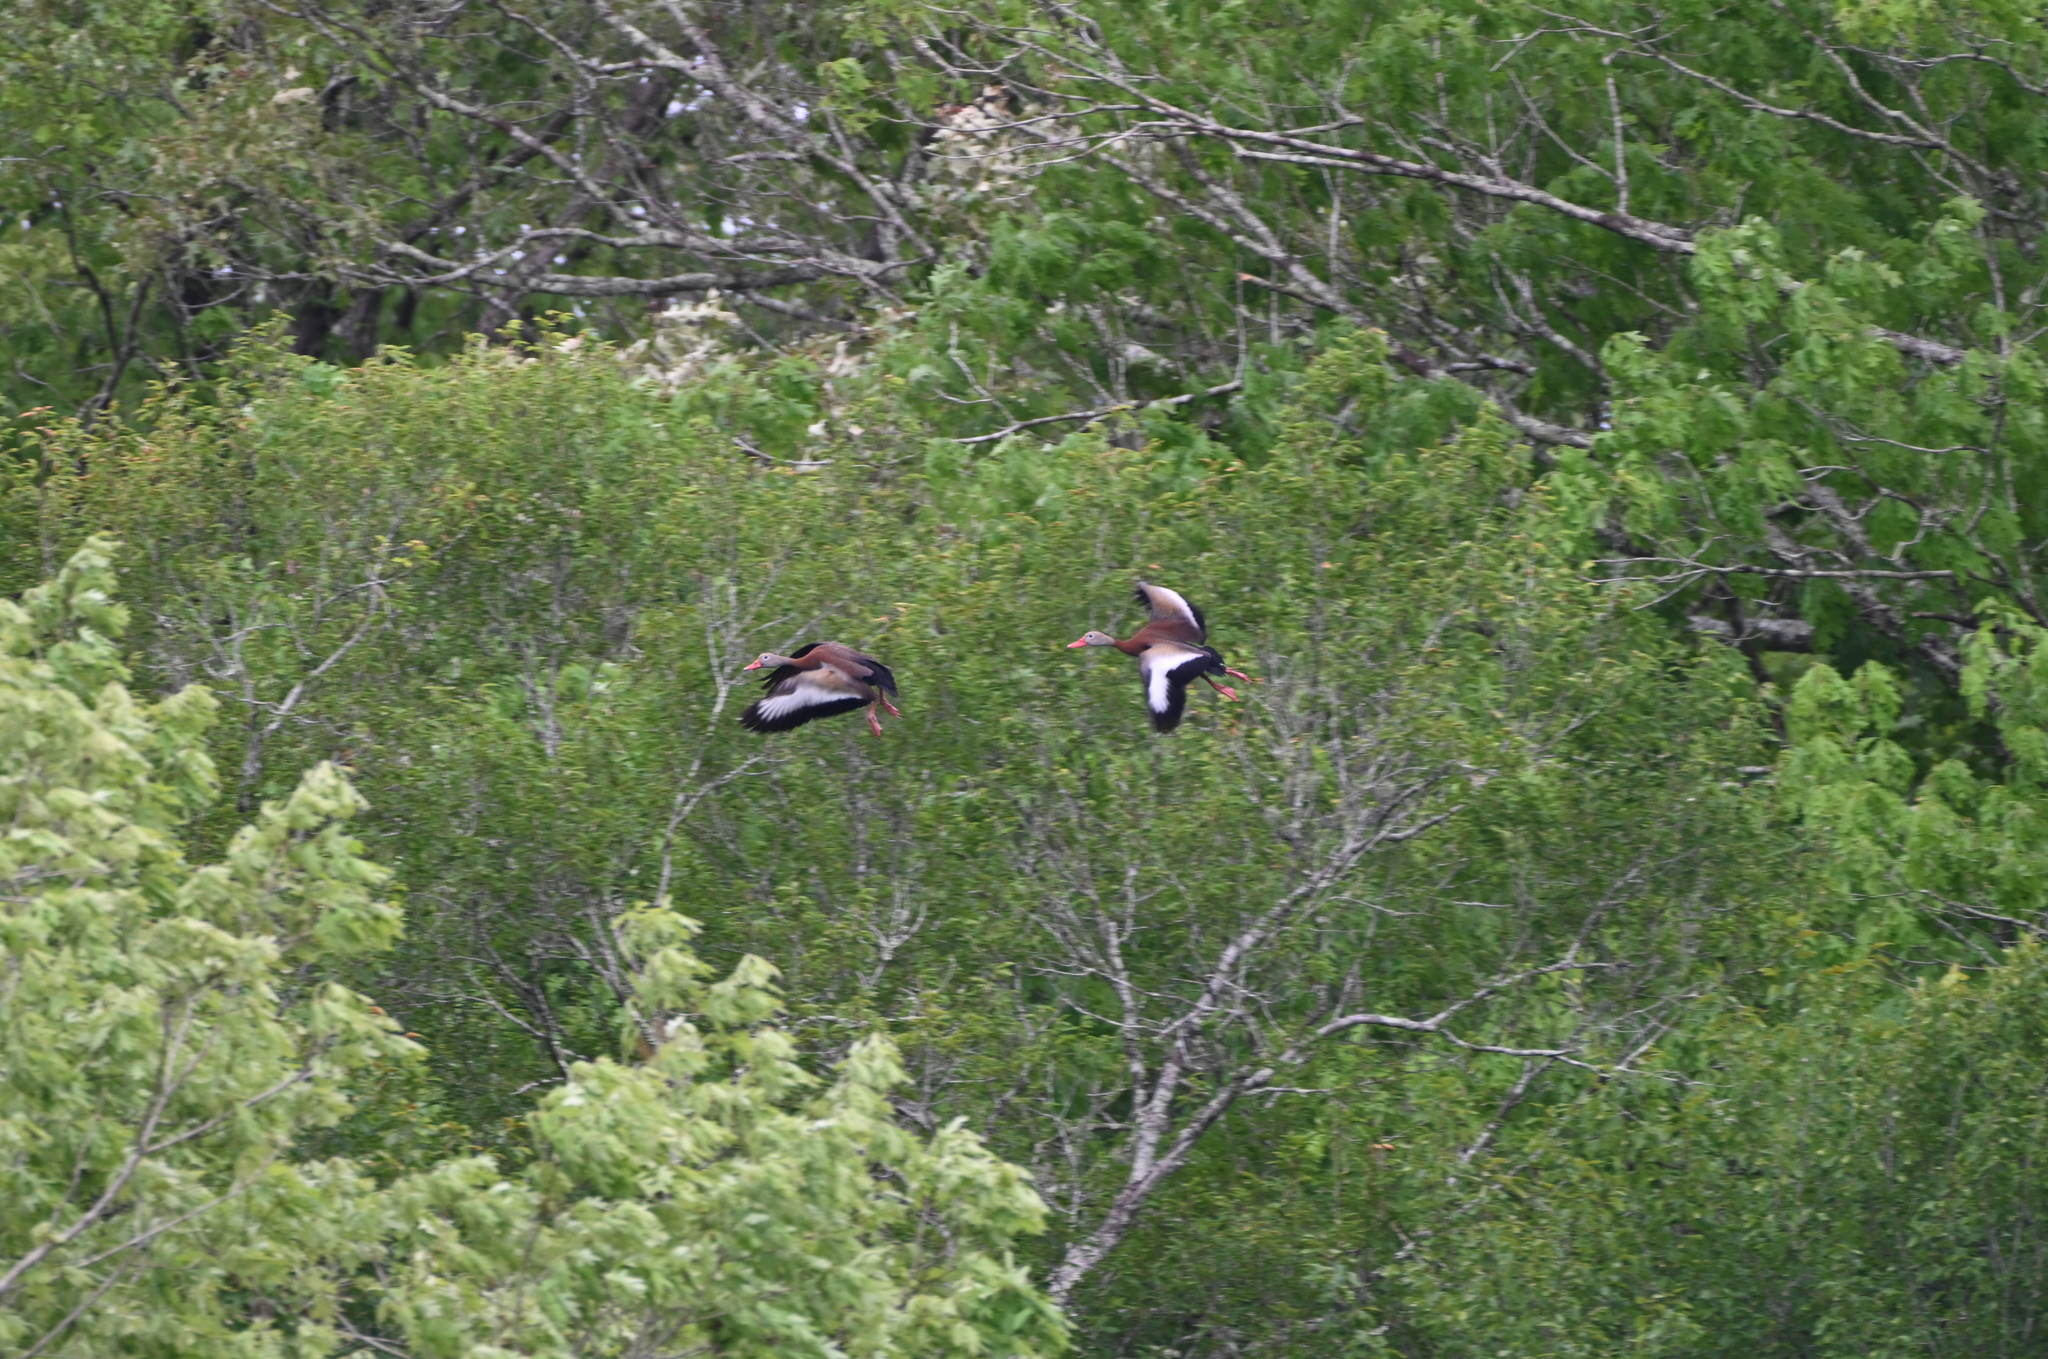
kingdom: Animalia
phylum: Chordata
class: Aves
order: Anseriformes
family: Anatidae
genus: Dendrocygna
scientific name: Dendrocygna autumnalis
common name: Black-bellied whistling duck
